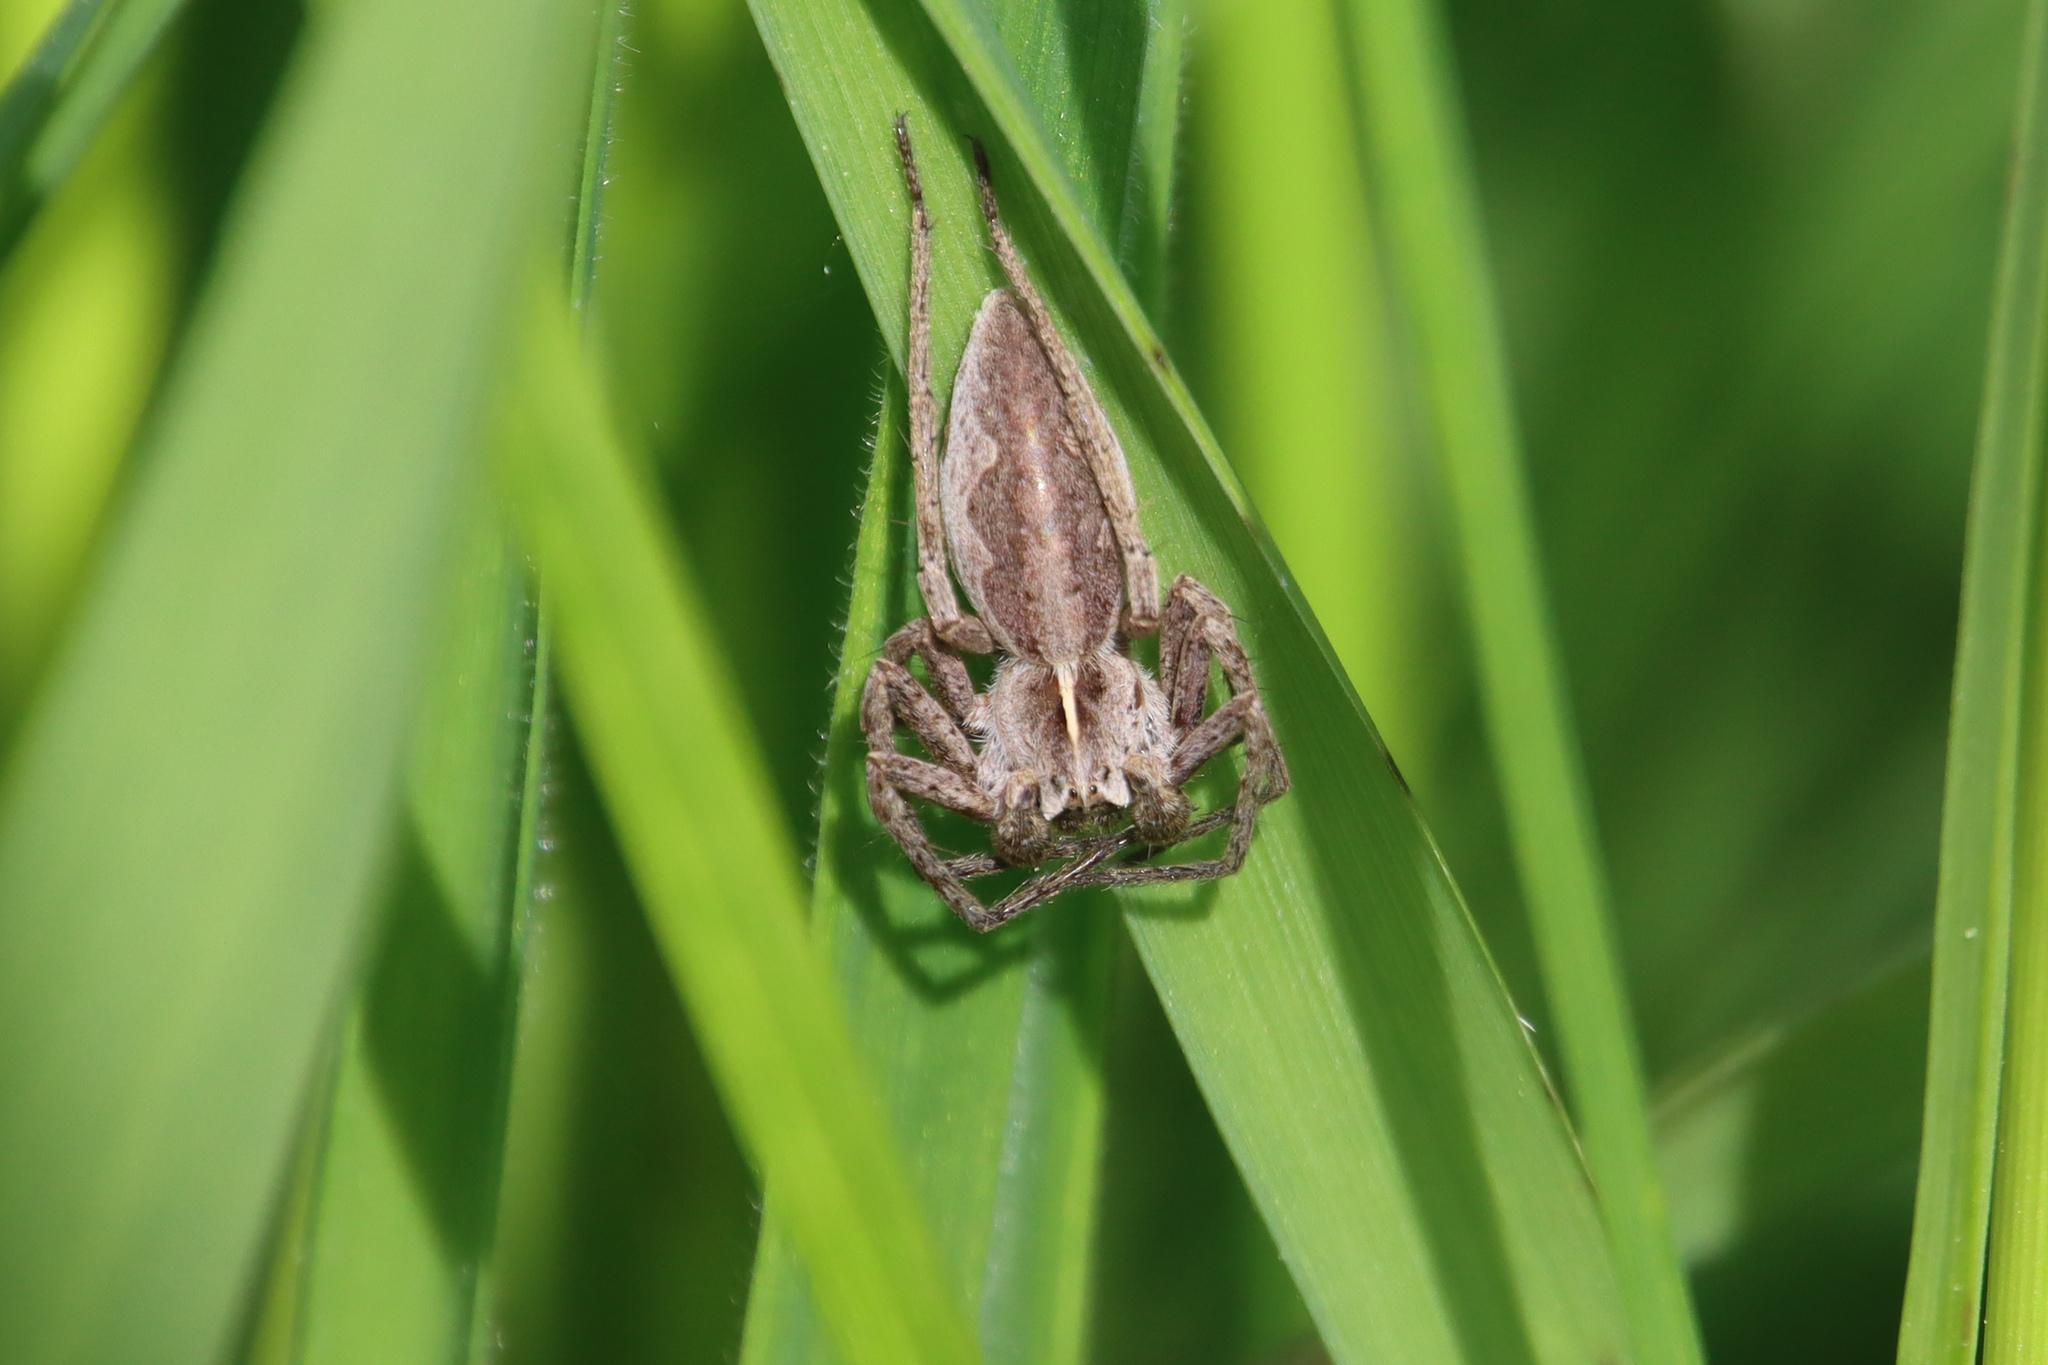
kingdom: Animalia
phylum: Arthropoda
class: Arachnida
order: Araneae
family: Pisauridae
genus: Pisaura
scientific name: Pisaura mirabilis
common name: Tent spider
